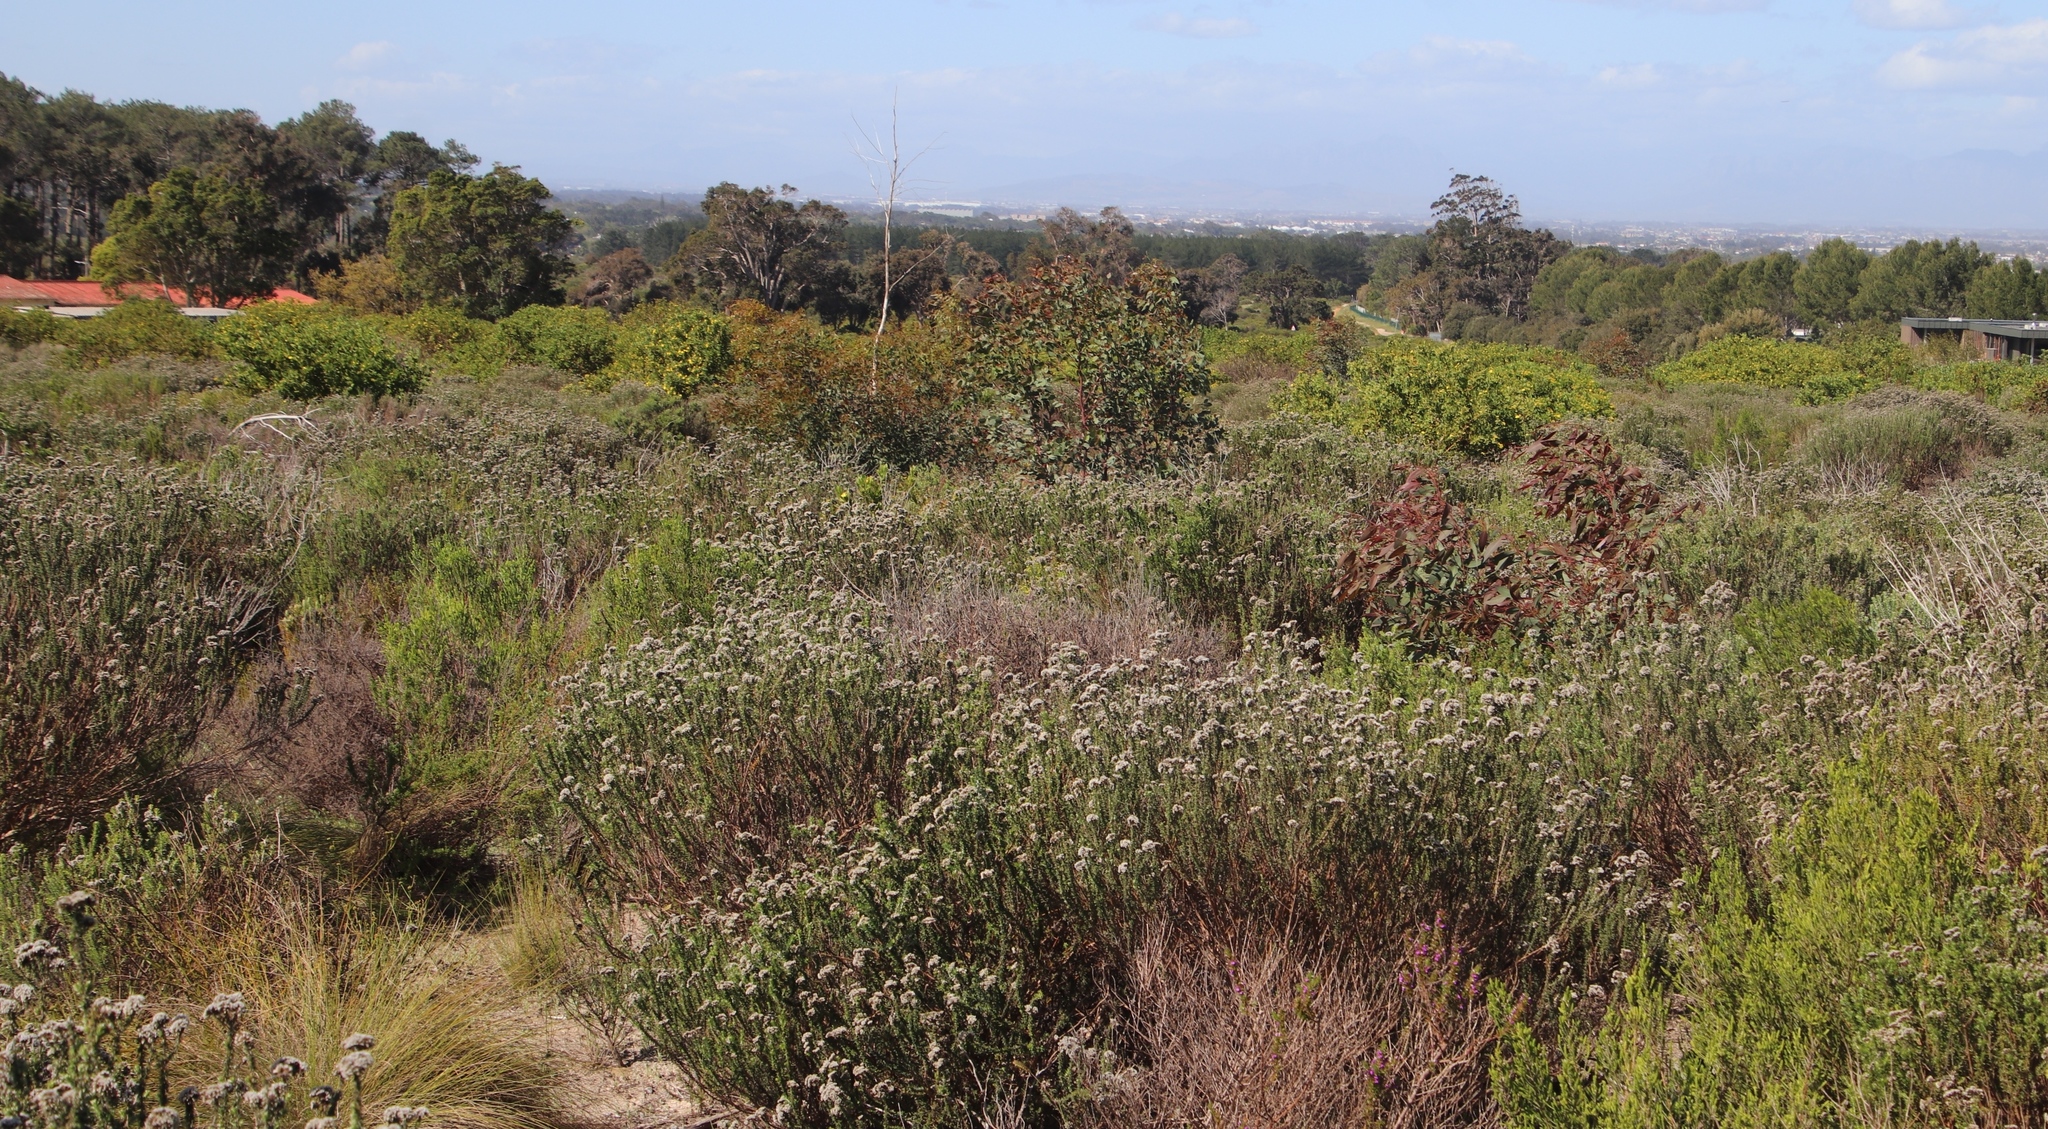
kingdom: Plantae
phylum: Tracheophyta
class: Magnoliopsida
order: Asterales
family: Asteraceae
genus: Metalasia
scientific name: Metalasia densa
